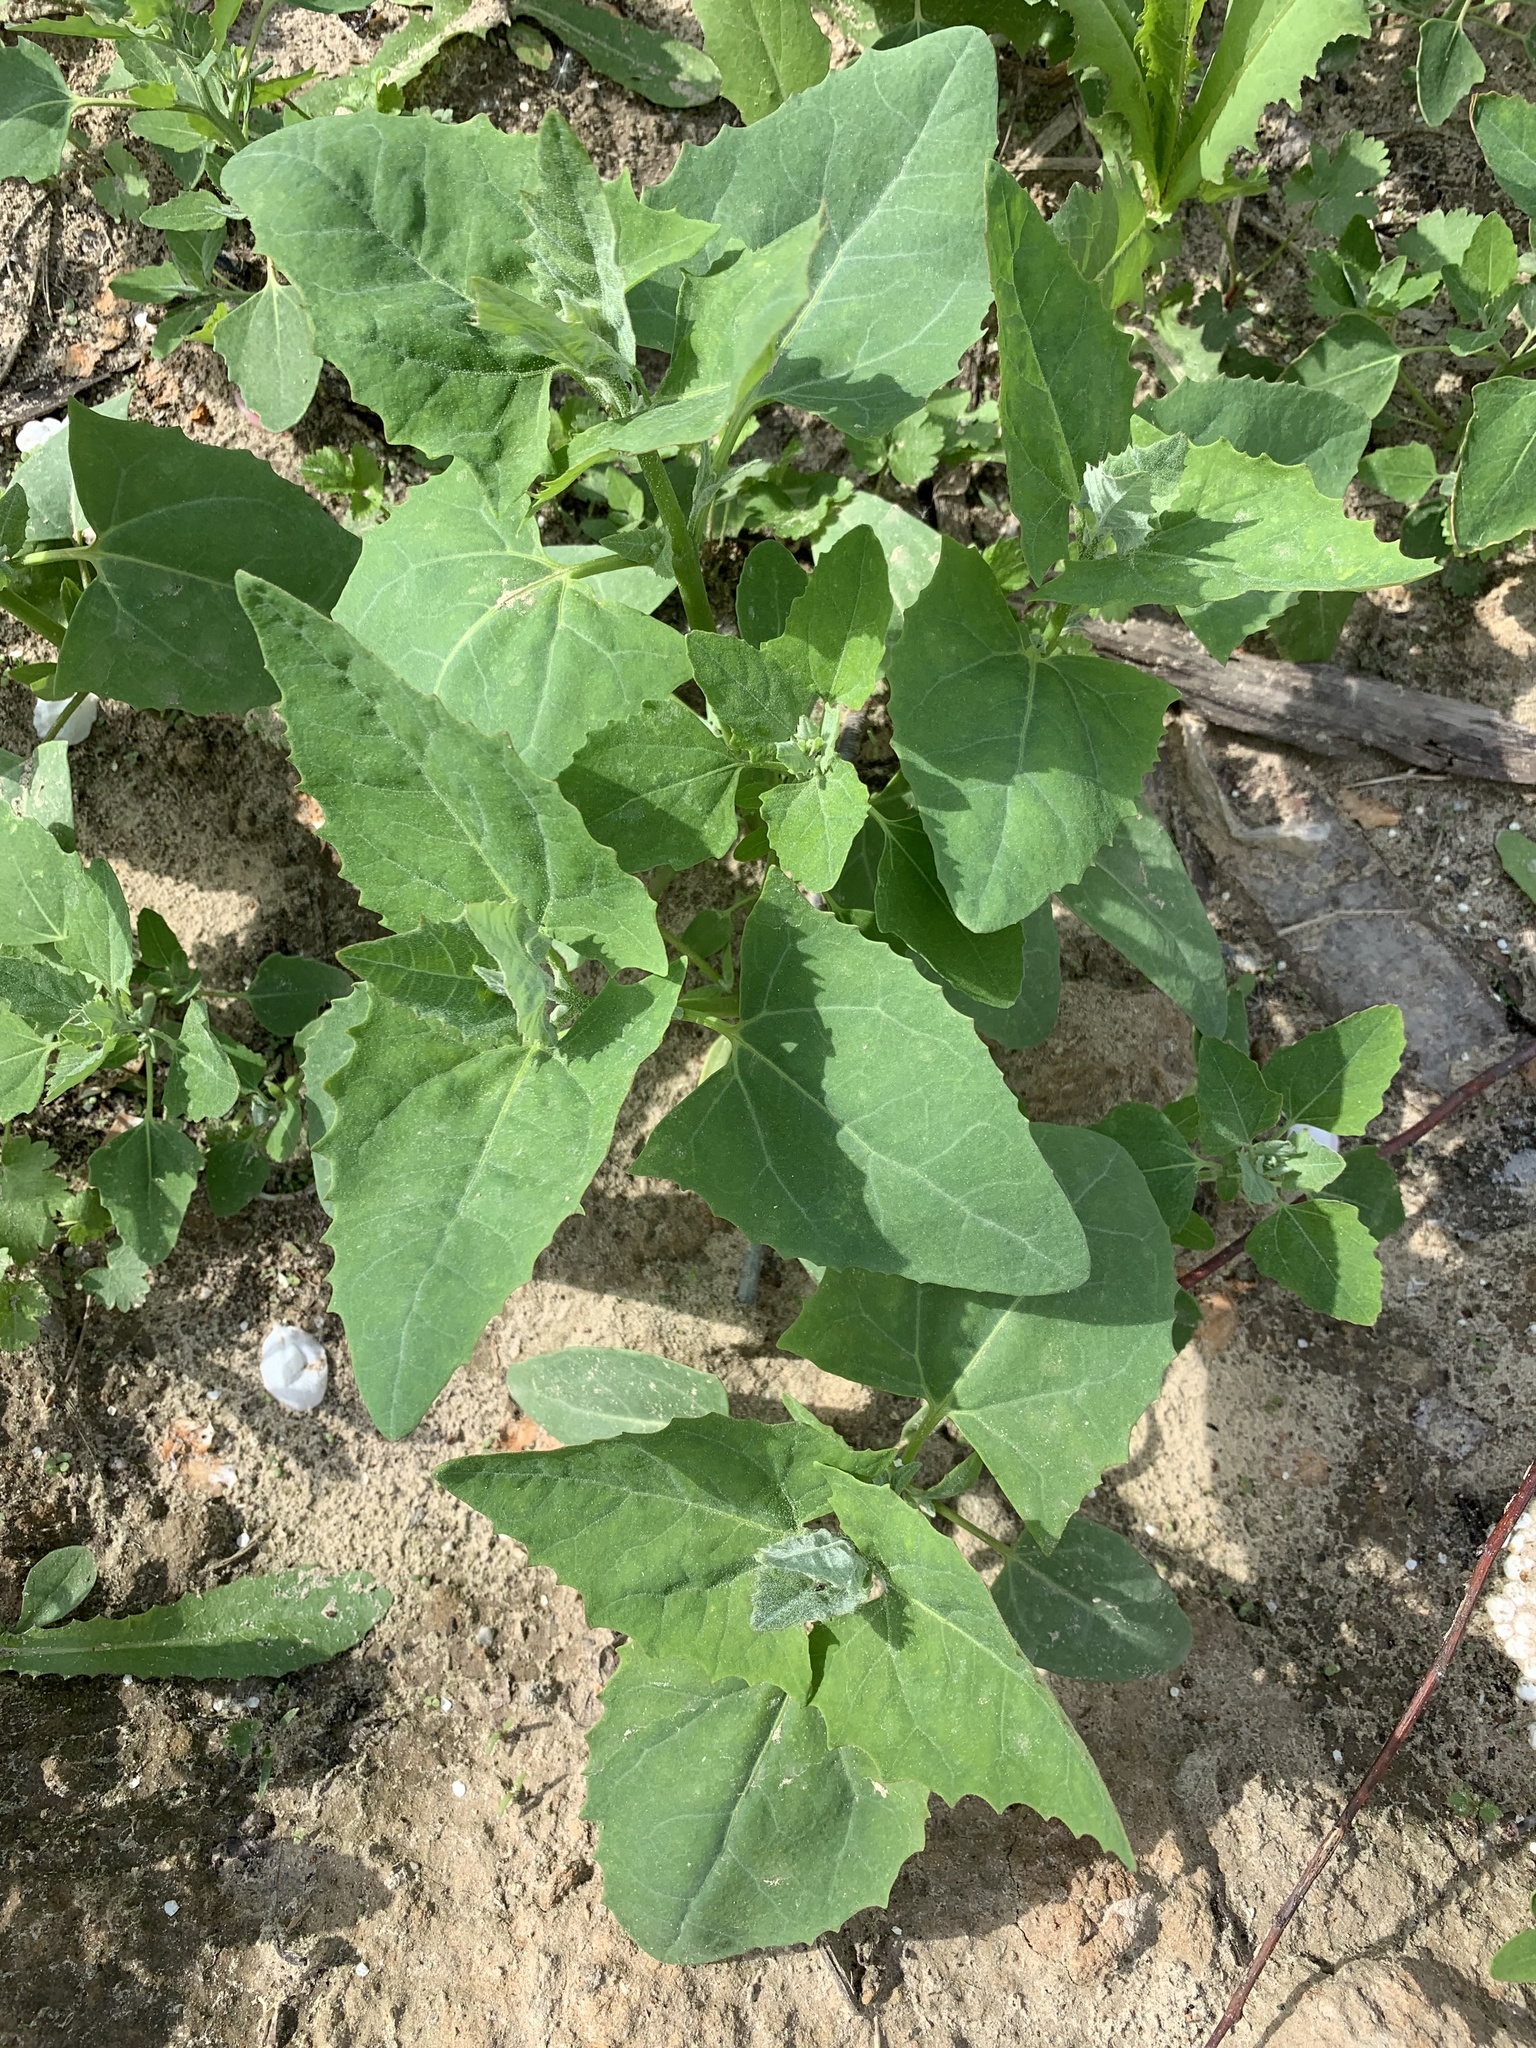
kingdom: Plantae
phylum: Tracheophyta
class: Magnoliopsida
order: Caryophyllales
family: Amaranthaceae
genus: Atriplex
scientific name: Atriplex sagittata
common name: Purple orache
